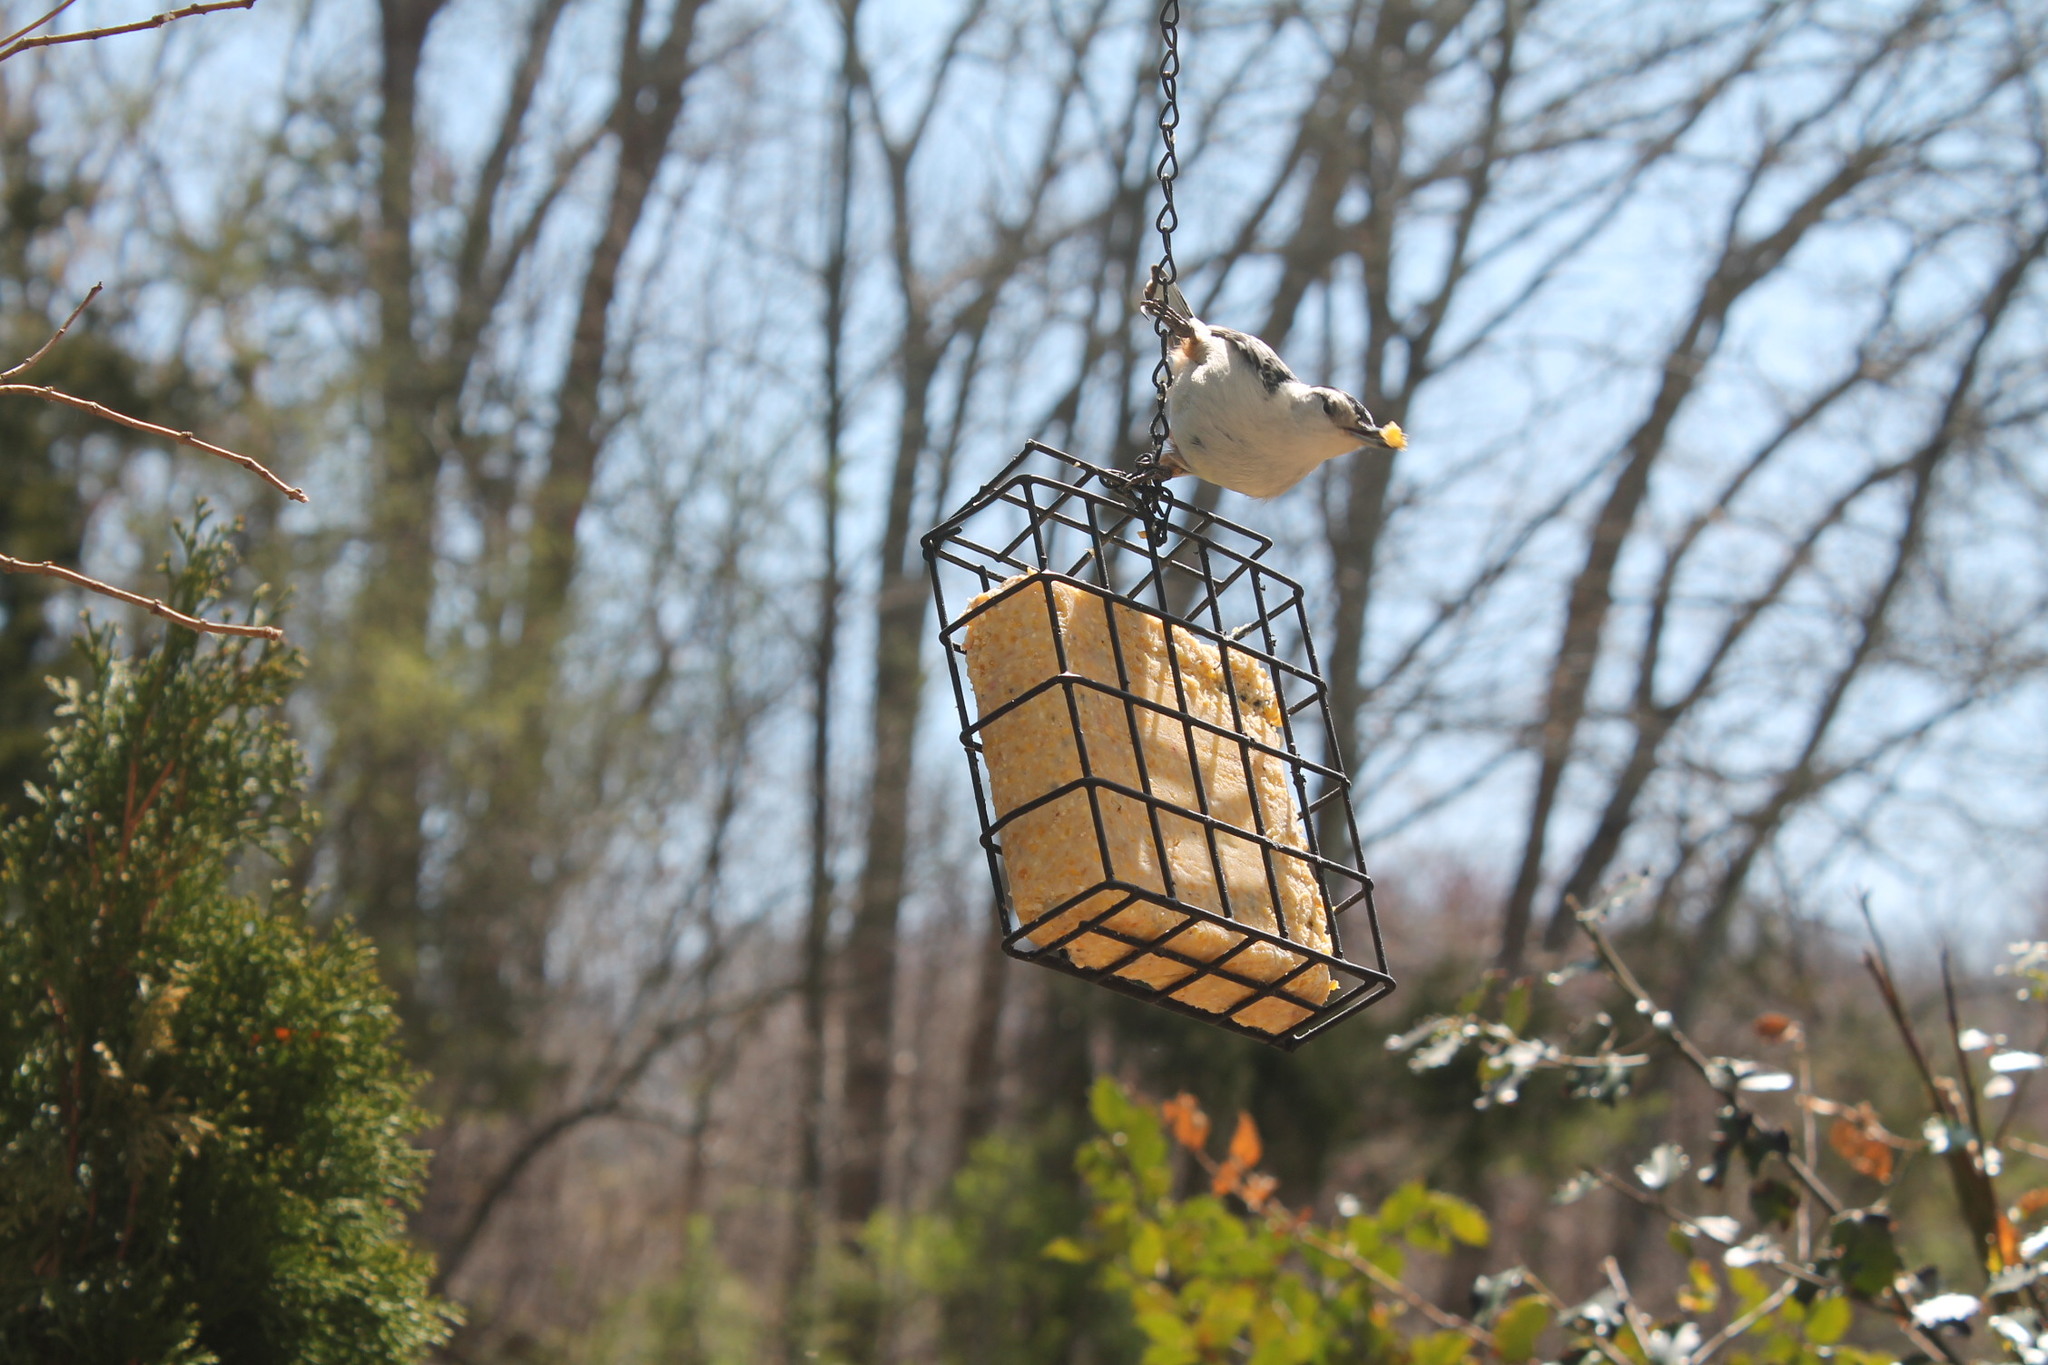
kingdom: Animalia
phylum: Chordata
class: Aves
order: Passeriformes
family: Sittidae
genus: Sitta
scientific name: Sitta carolinensis
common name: White-breasted nuthatch
